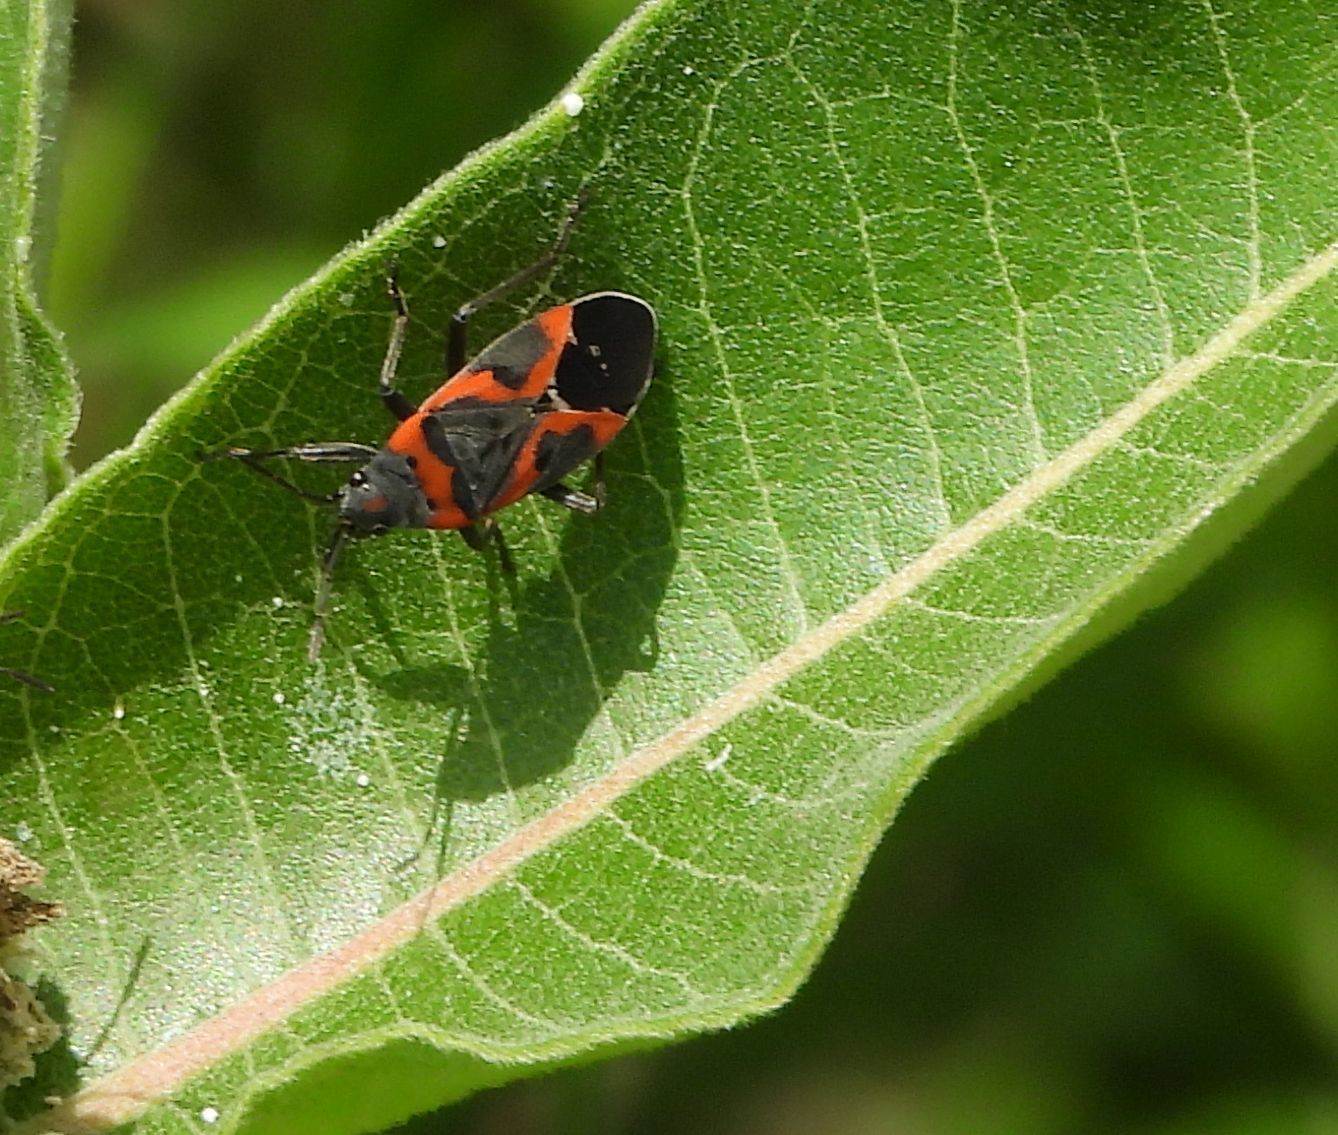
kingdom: Animalia
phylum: Arthropoda
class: Insecta
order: Hemiptera
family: Lygaeidae
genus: Lygaeus
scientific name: Lygaeus kalmii
